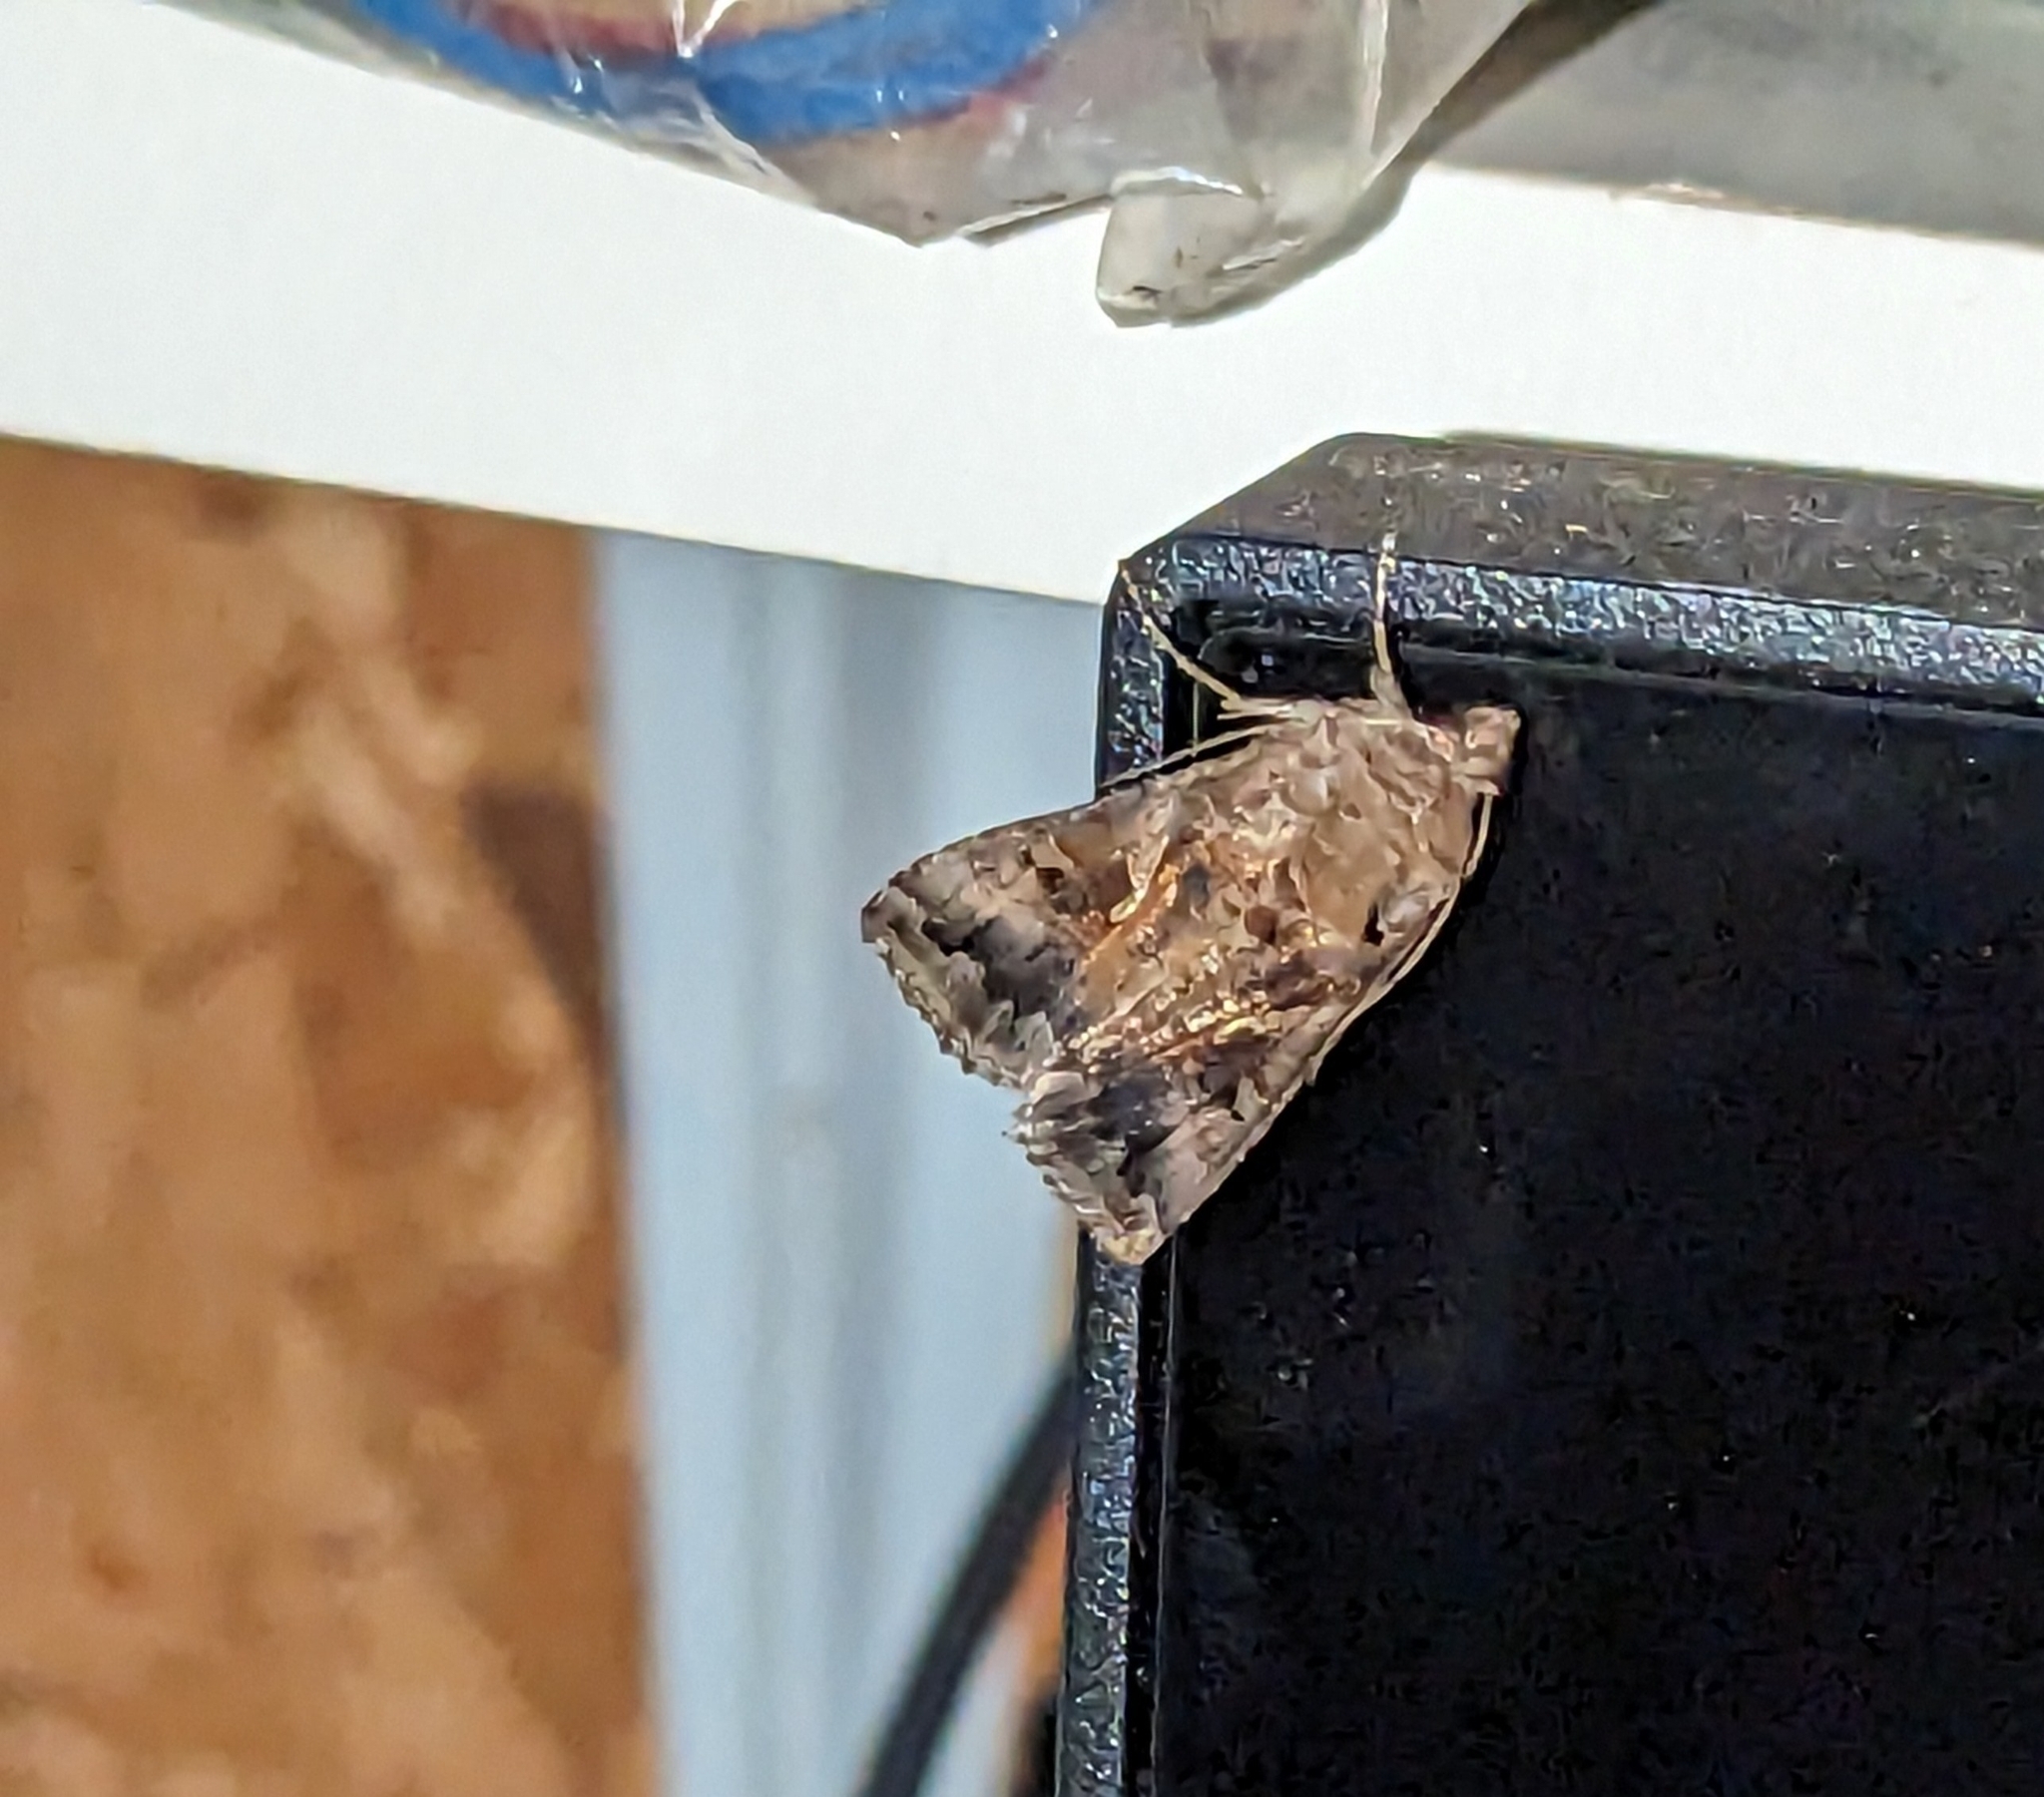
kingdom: Animalia
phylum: Arthropoda
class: Insecta
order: Lepidoptera
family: Noctuidae
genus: Autographa
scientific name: Autographa gamma
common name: Silver y
